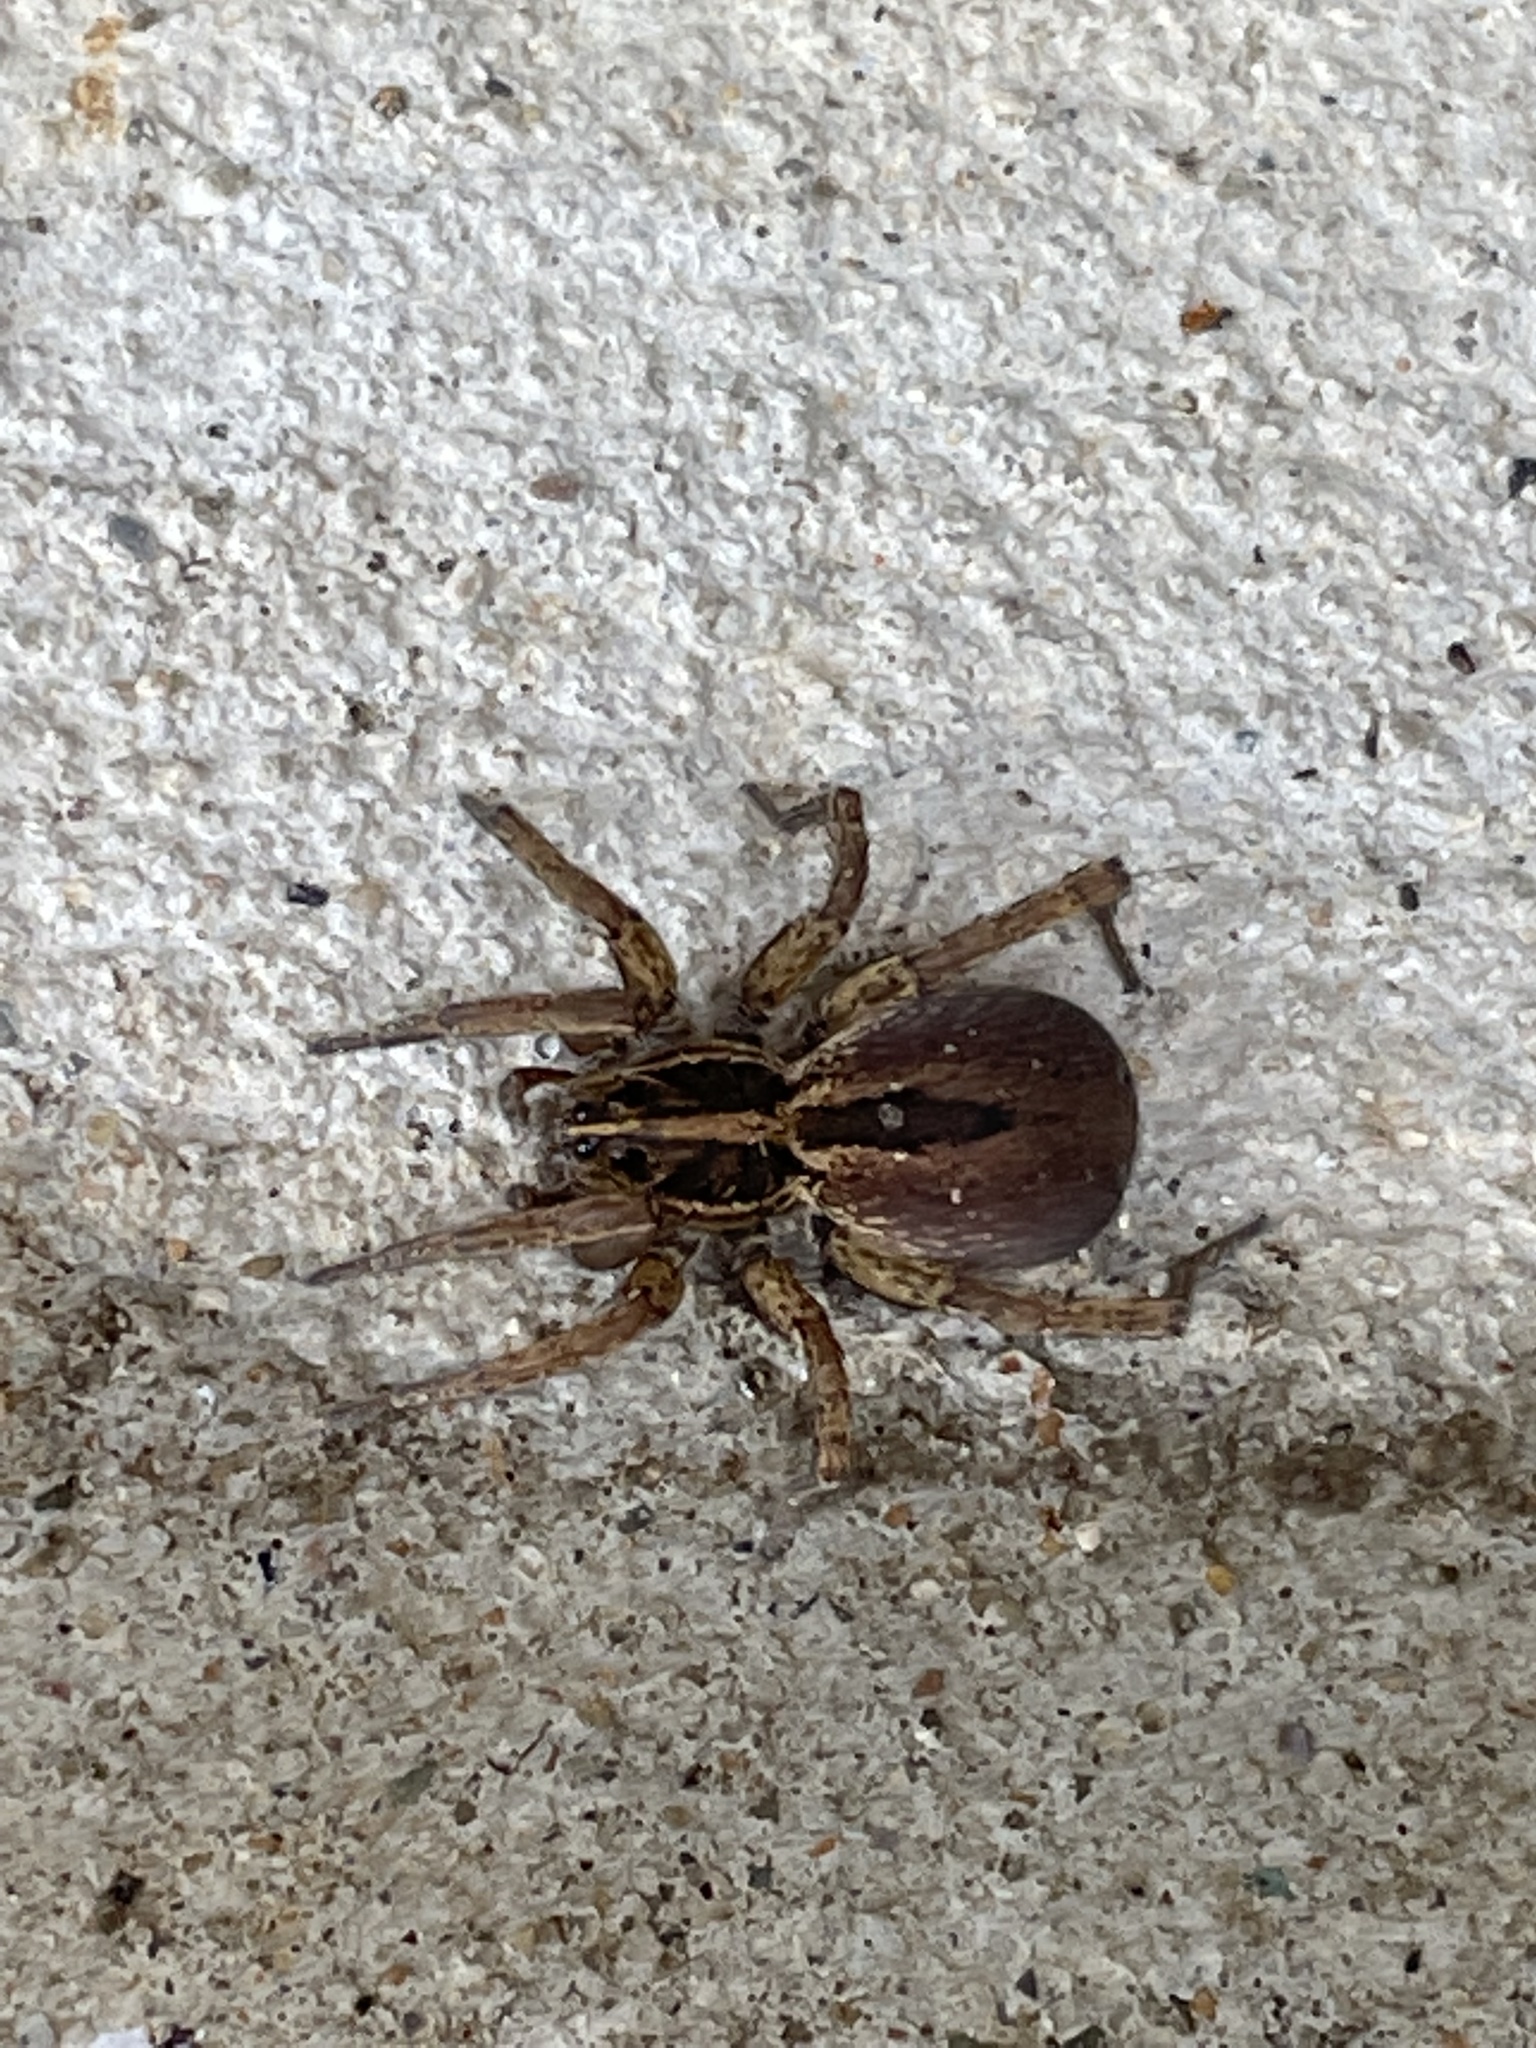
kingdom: Animalia
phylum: Arthropoda
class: Arachnida
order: Araneae
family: Lycosidae
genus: Tigrosa
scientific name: Tigrosa annexa
